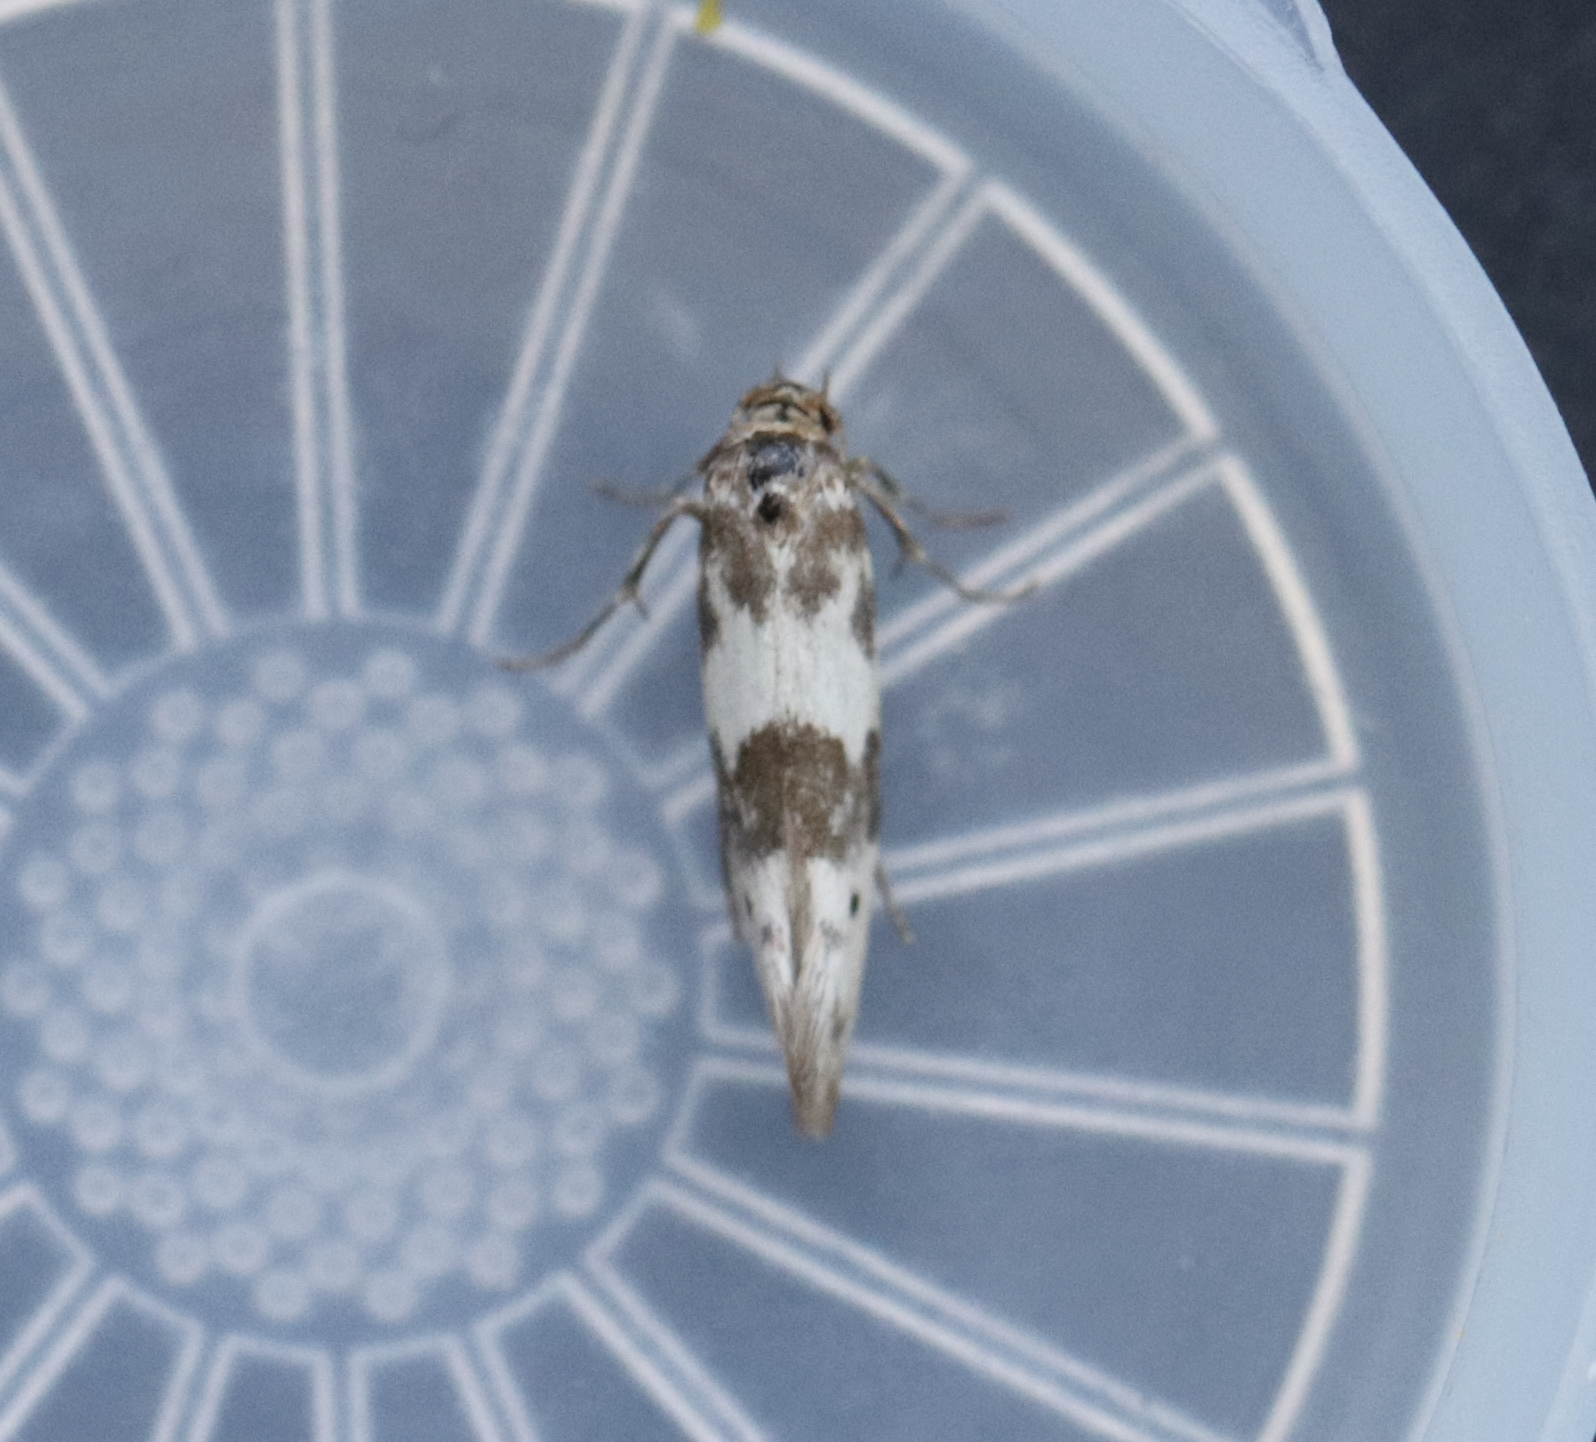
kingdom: Animalia
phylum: Arthropoda
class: Insecta
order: Lepidoptera
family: Scythrididae
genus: Enolmis
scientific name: Enolmis acanthella
